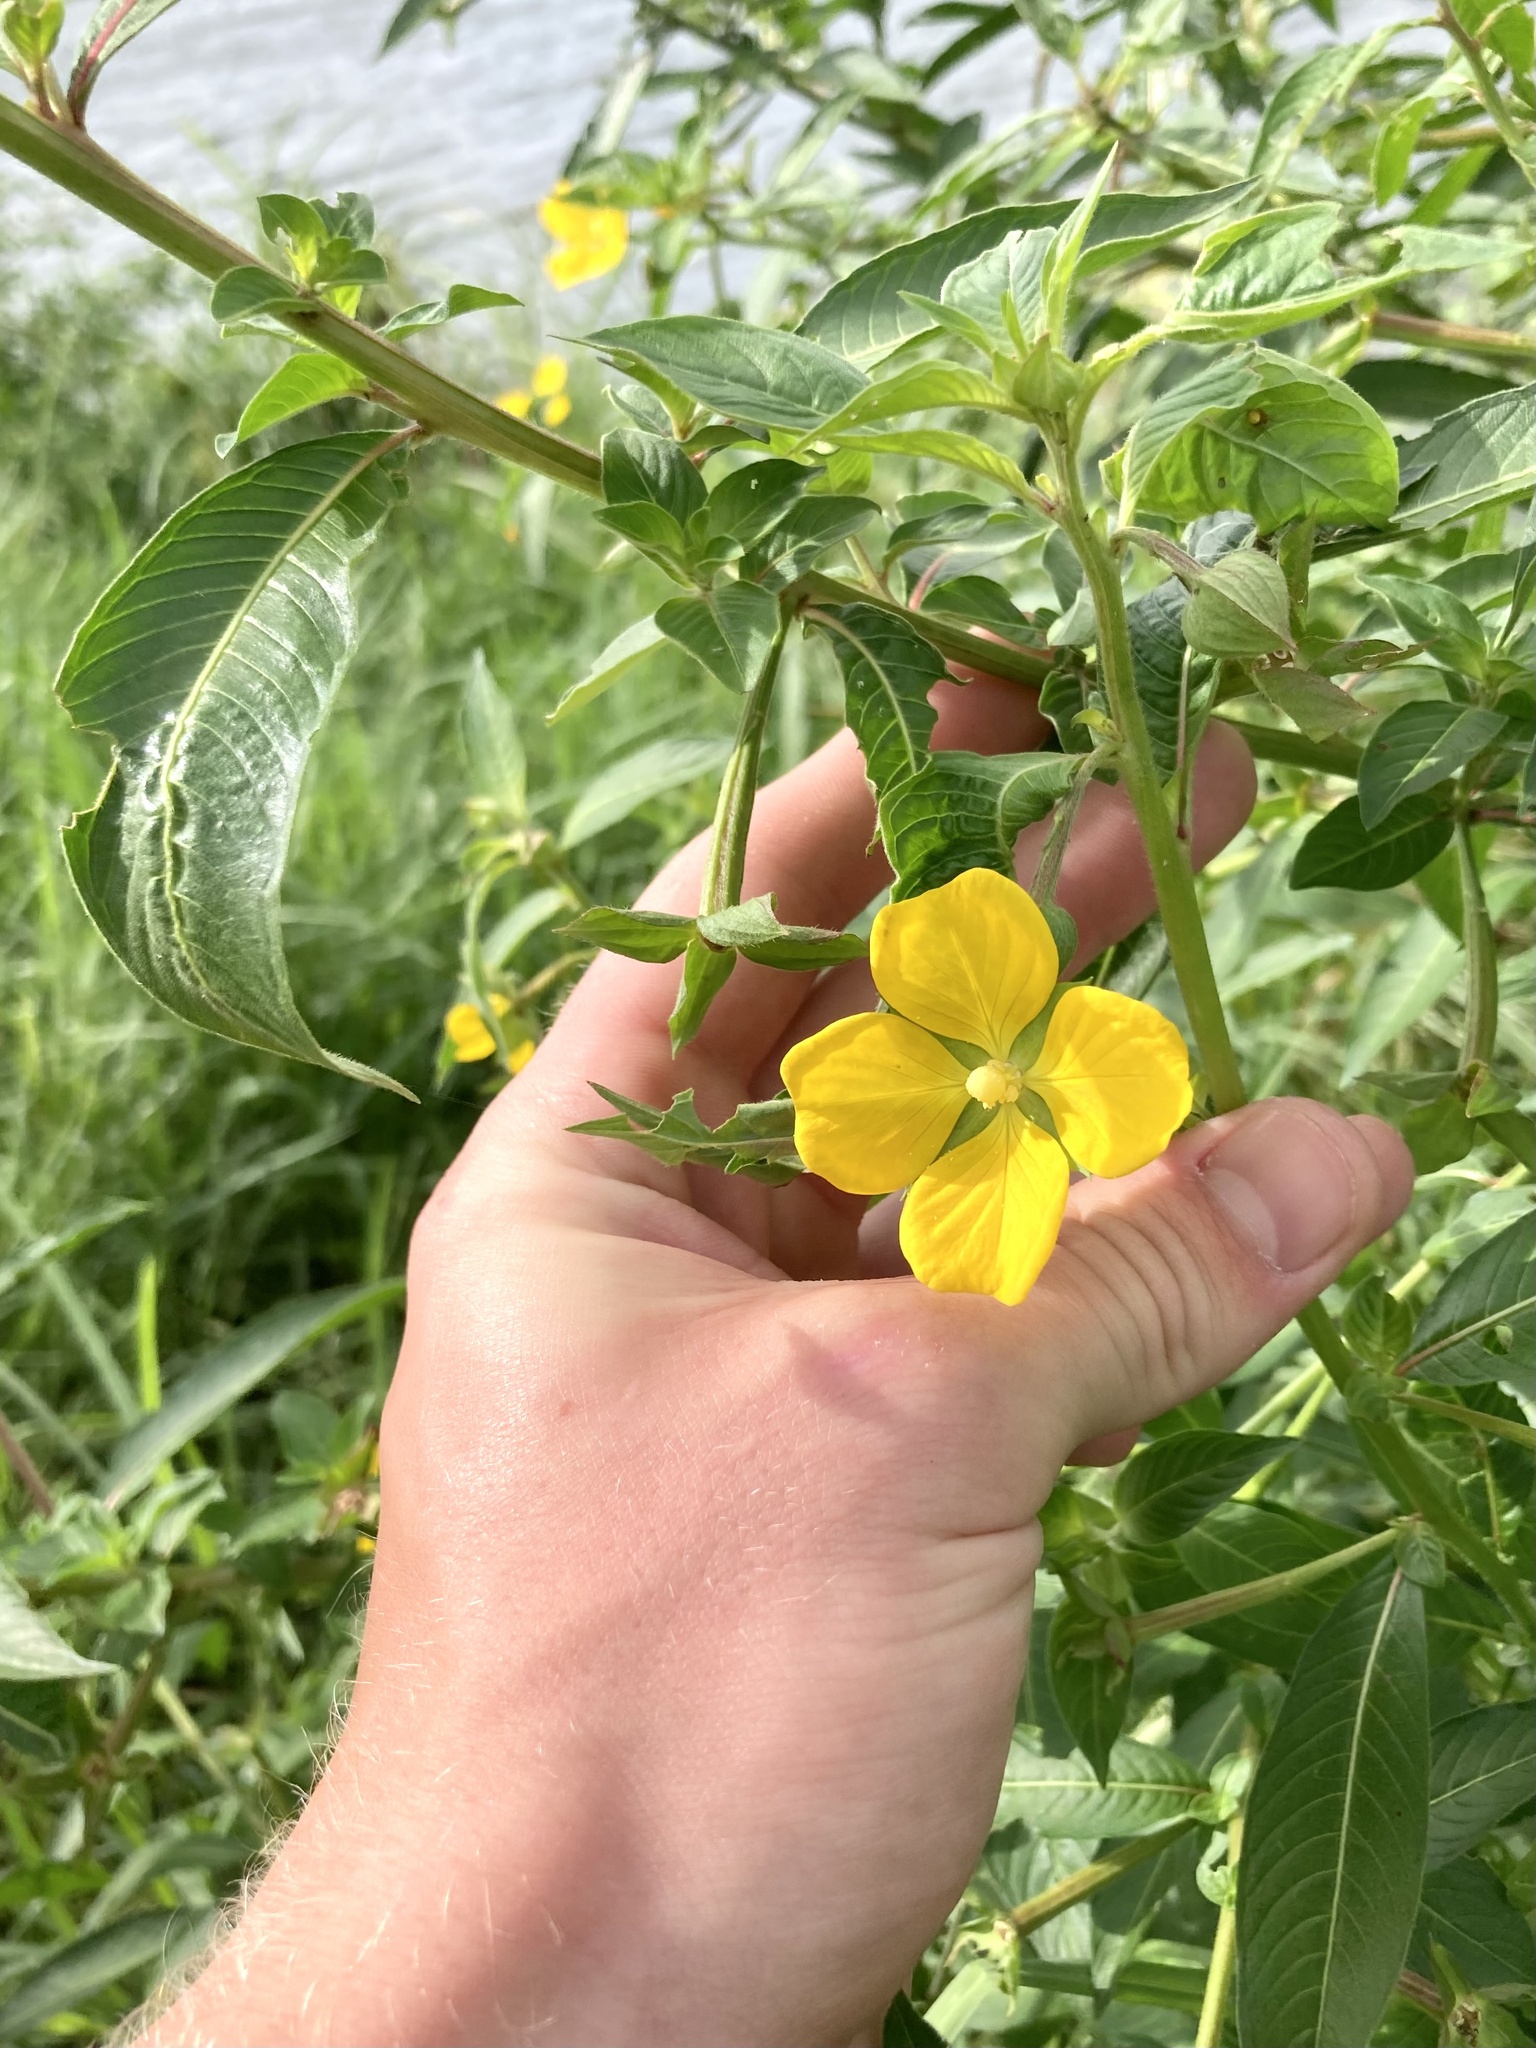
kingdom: Plantae
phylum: Tracheophyta
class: Magnoliopsida
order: Myrtales
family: Onagraceae
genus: Ludwigia
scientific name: Ludwigia octovalvis
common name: Water-primrose
